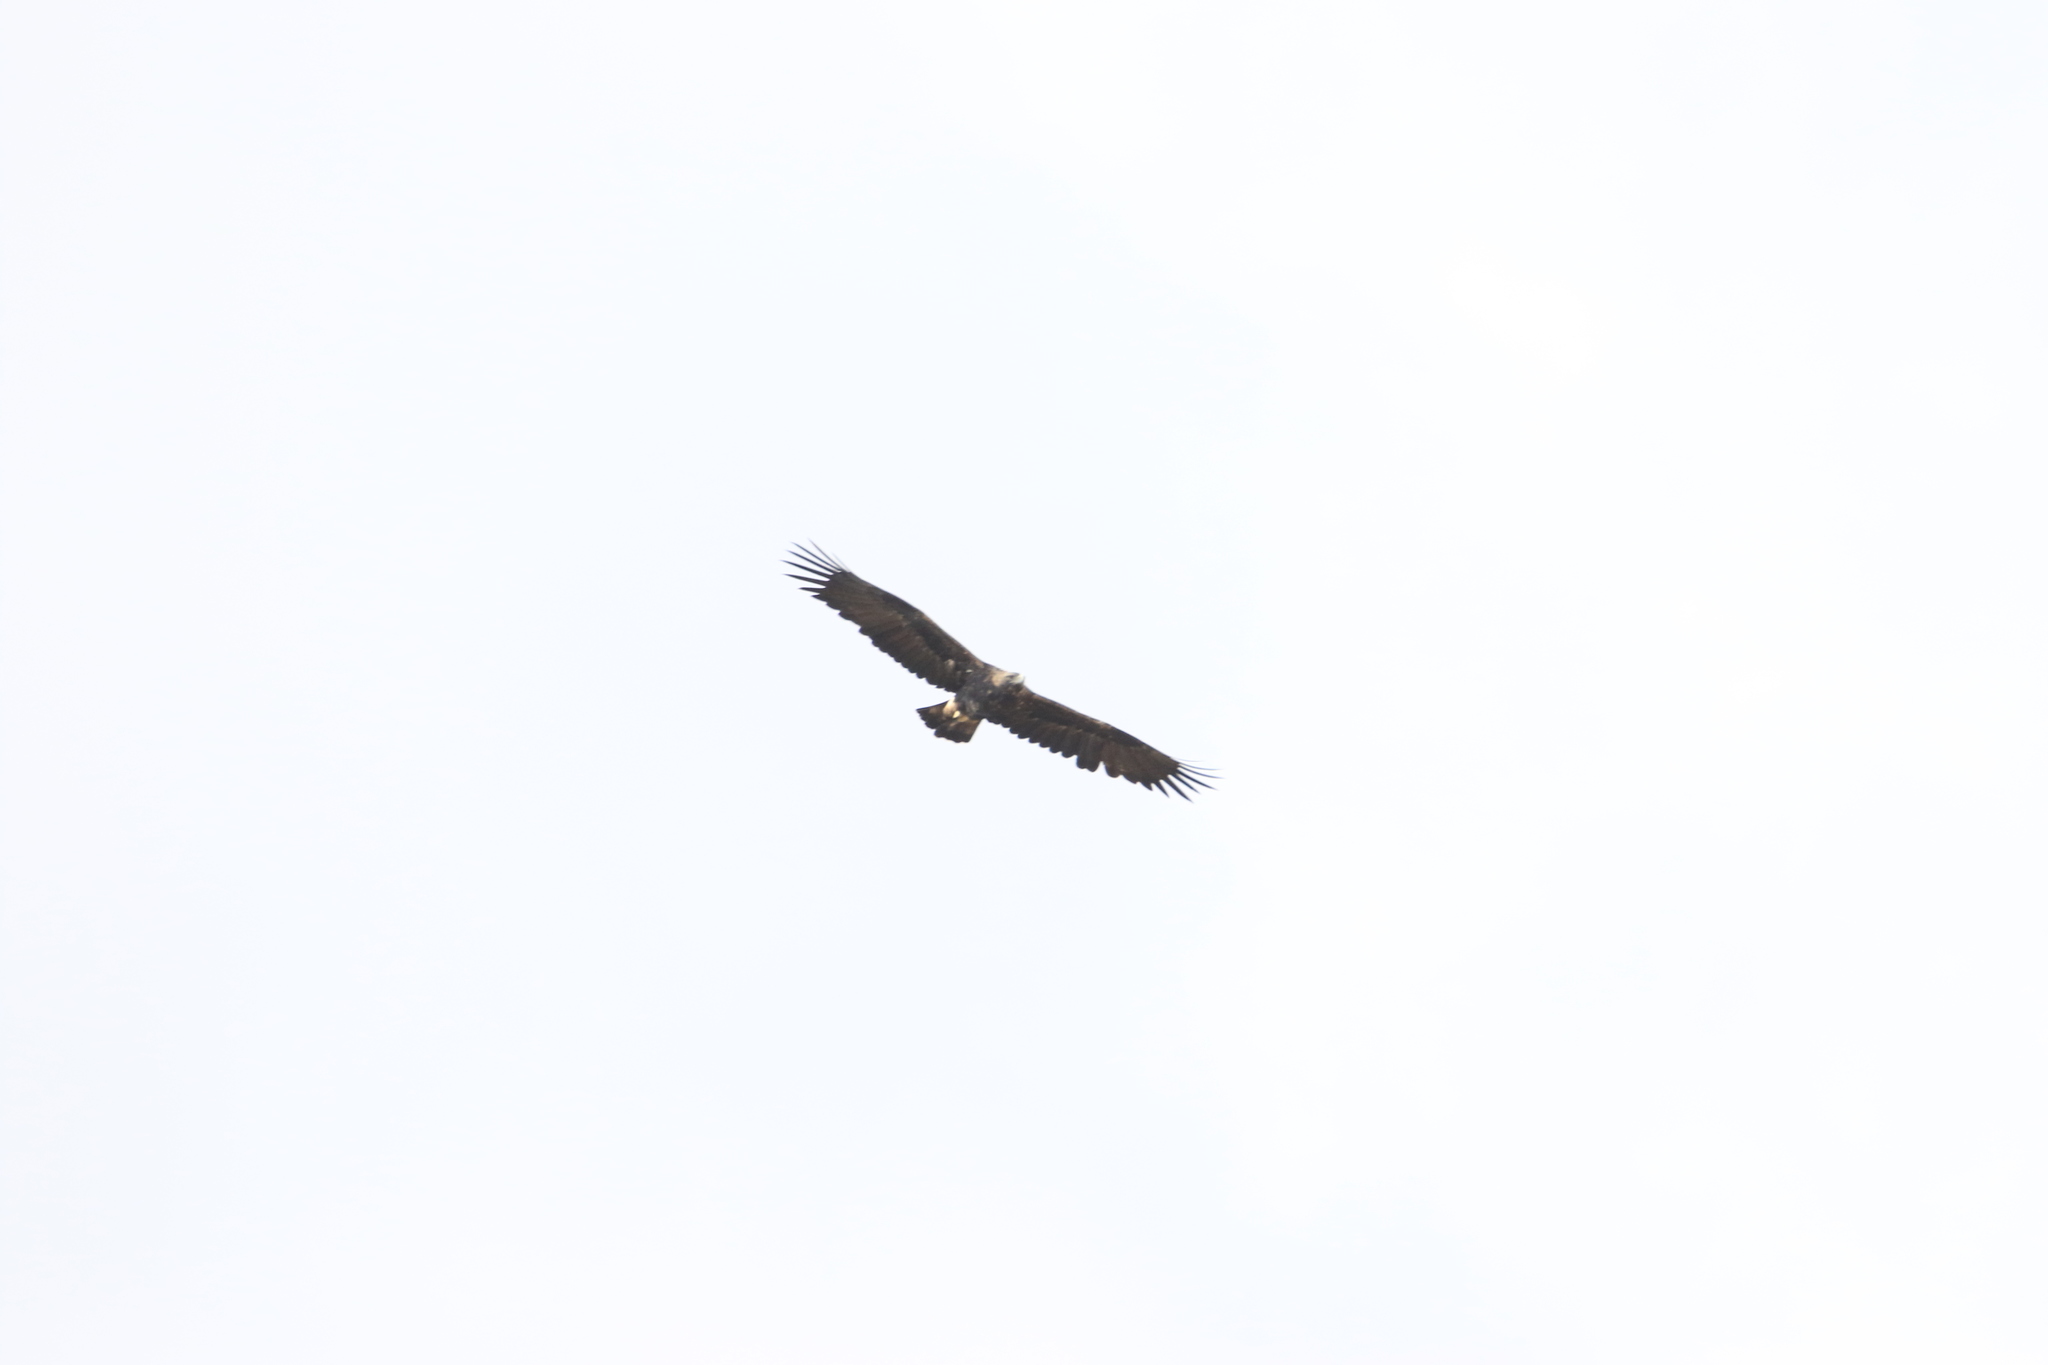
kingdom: Animalia
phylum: Chordata
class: Aves
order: Accipitriformes
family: Accipitridae
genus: Aquila
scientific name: Aquila heliaca
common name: Eastern imperial eagle
